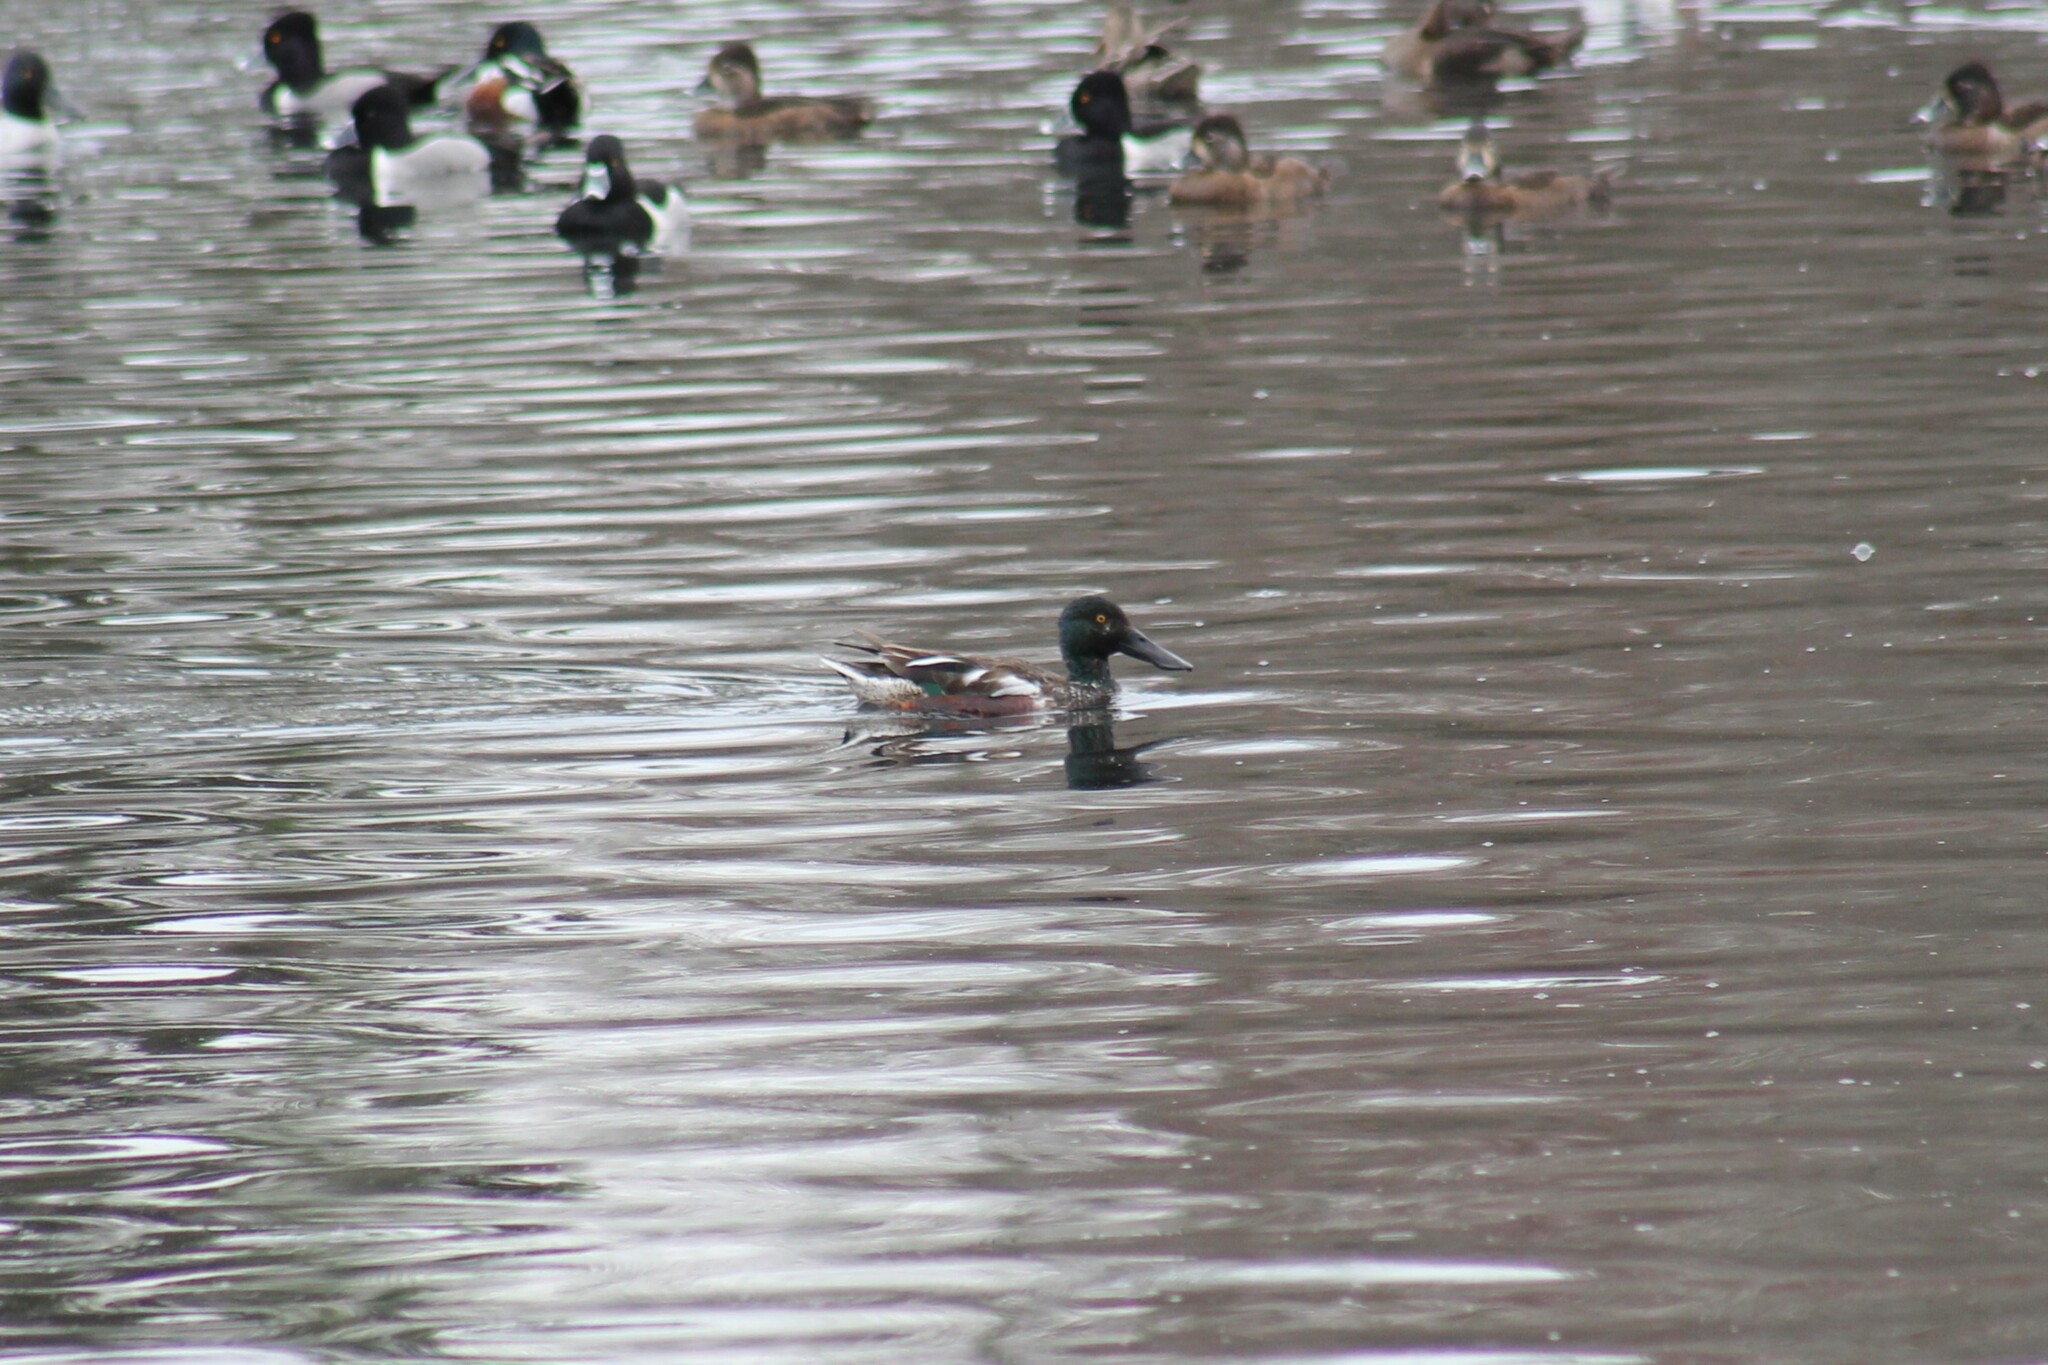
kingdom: Animalia
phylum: Chordata
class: Aves
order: Anseriformes
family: Anatidae
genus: Spatula
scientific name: Spatula clypeata
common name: Northern shoveler
